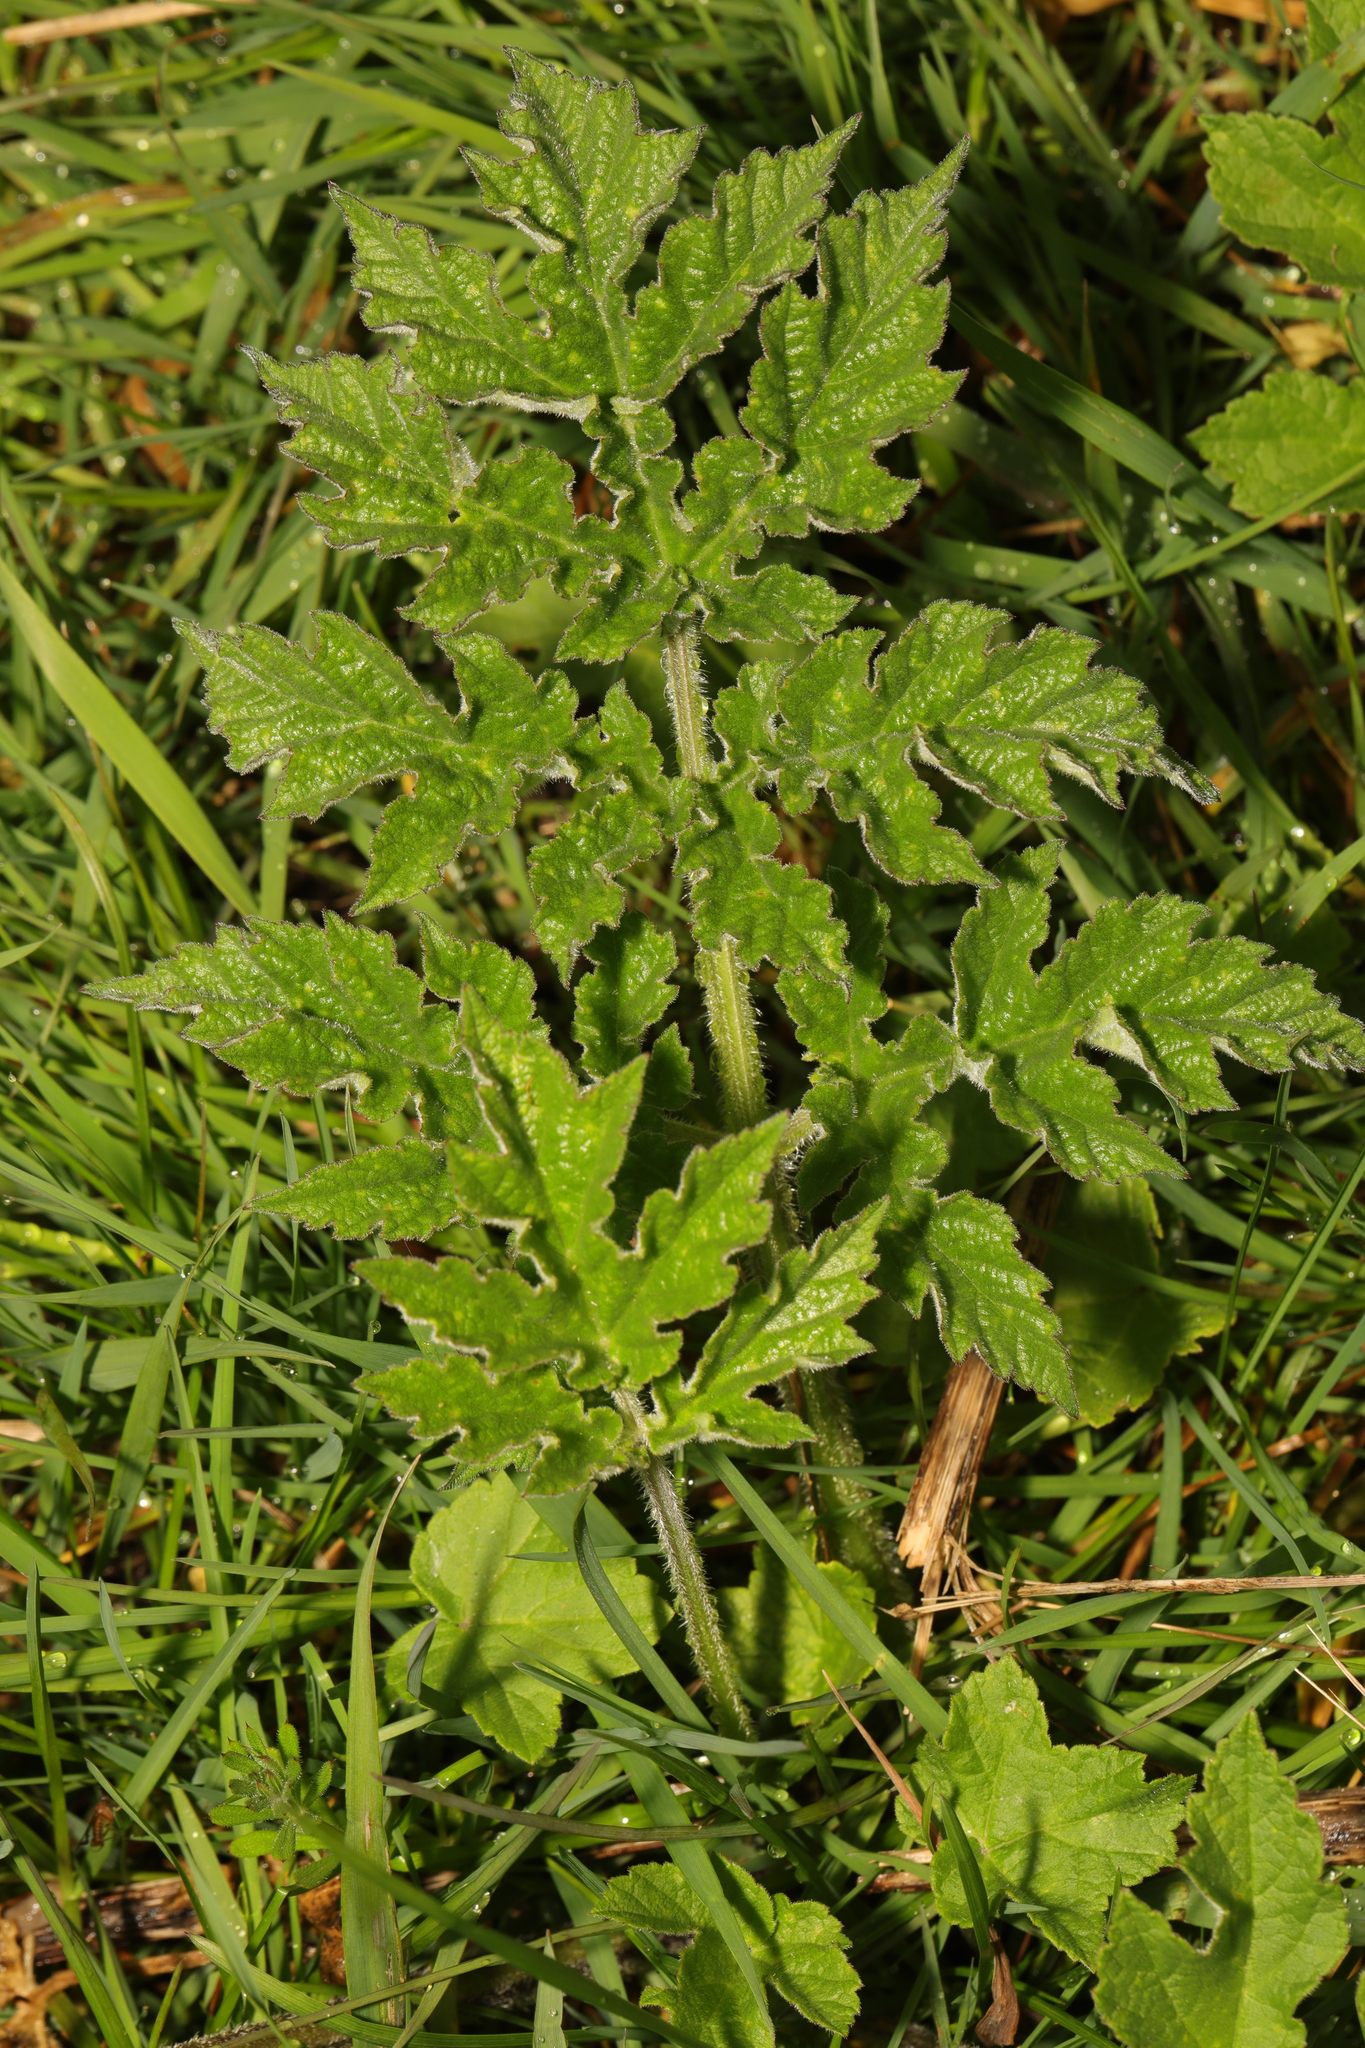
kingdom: Plantae
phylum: Tracheophyta
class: Magnoliopsida
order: Apiales
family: Apiaceae
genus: Heracleum
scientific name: Heracleum sphondylium
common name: Hogweed
